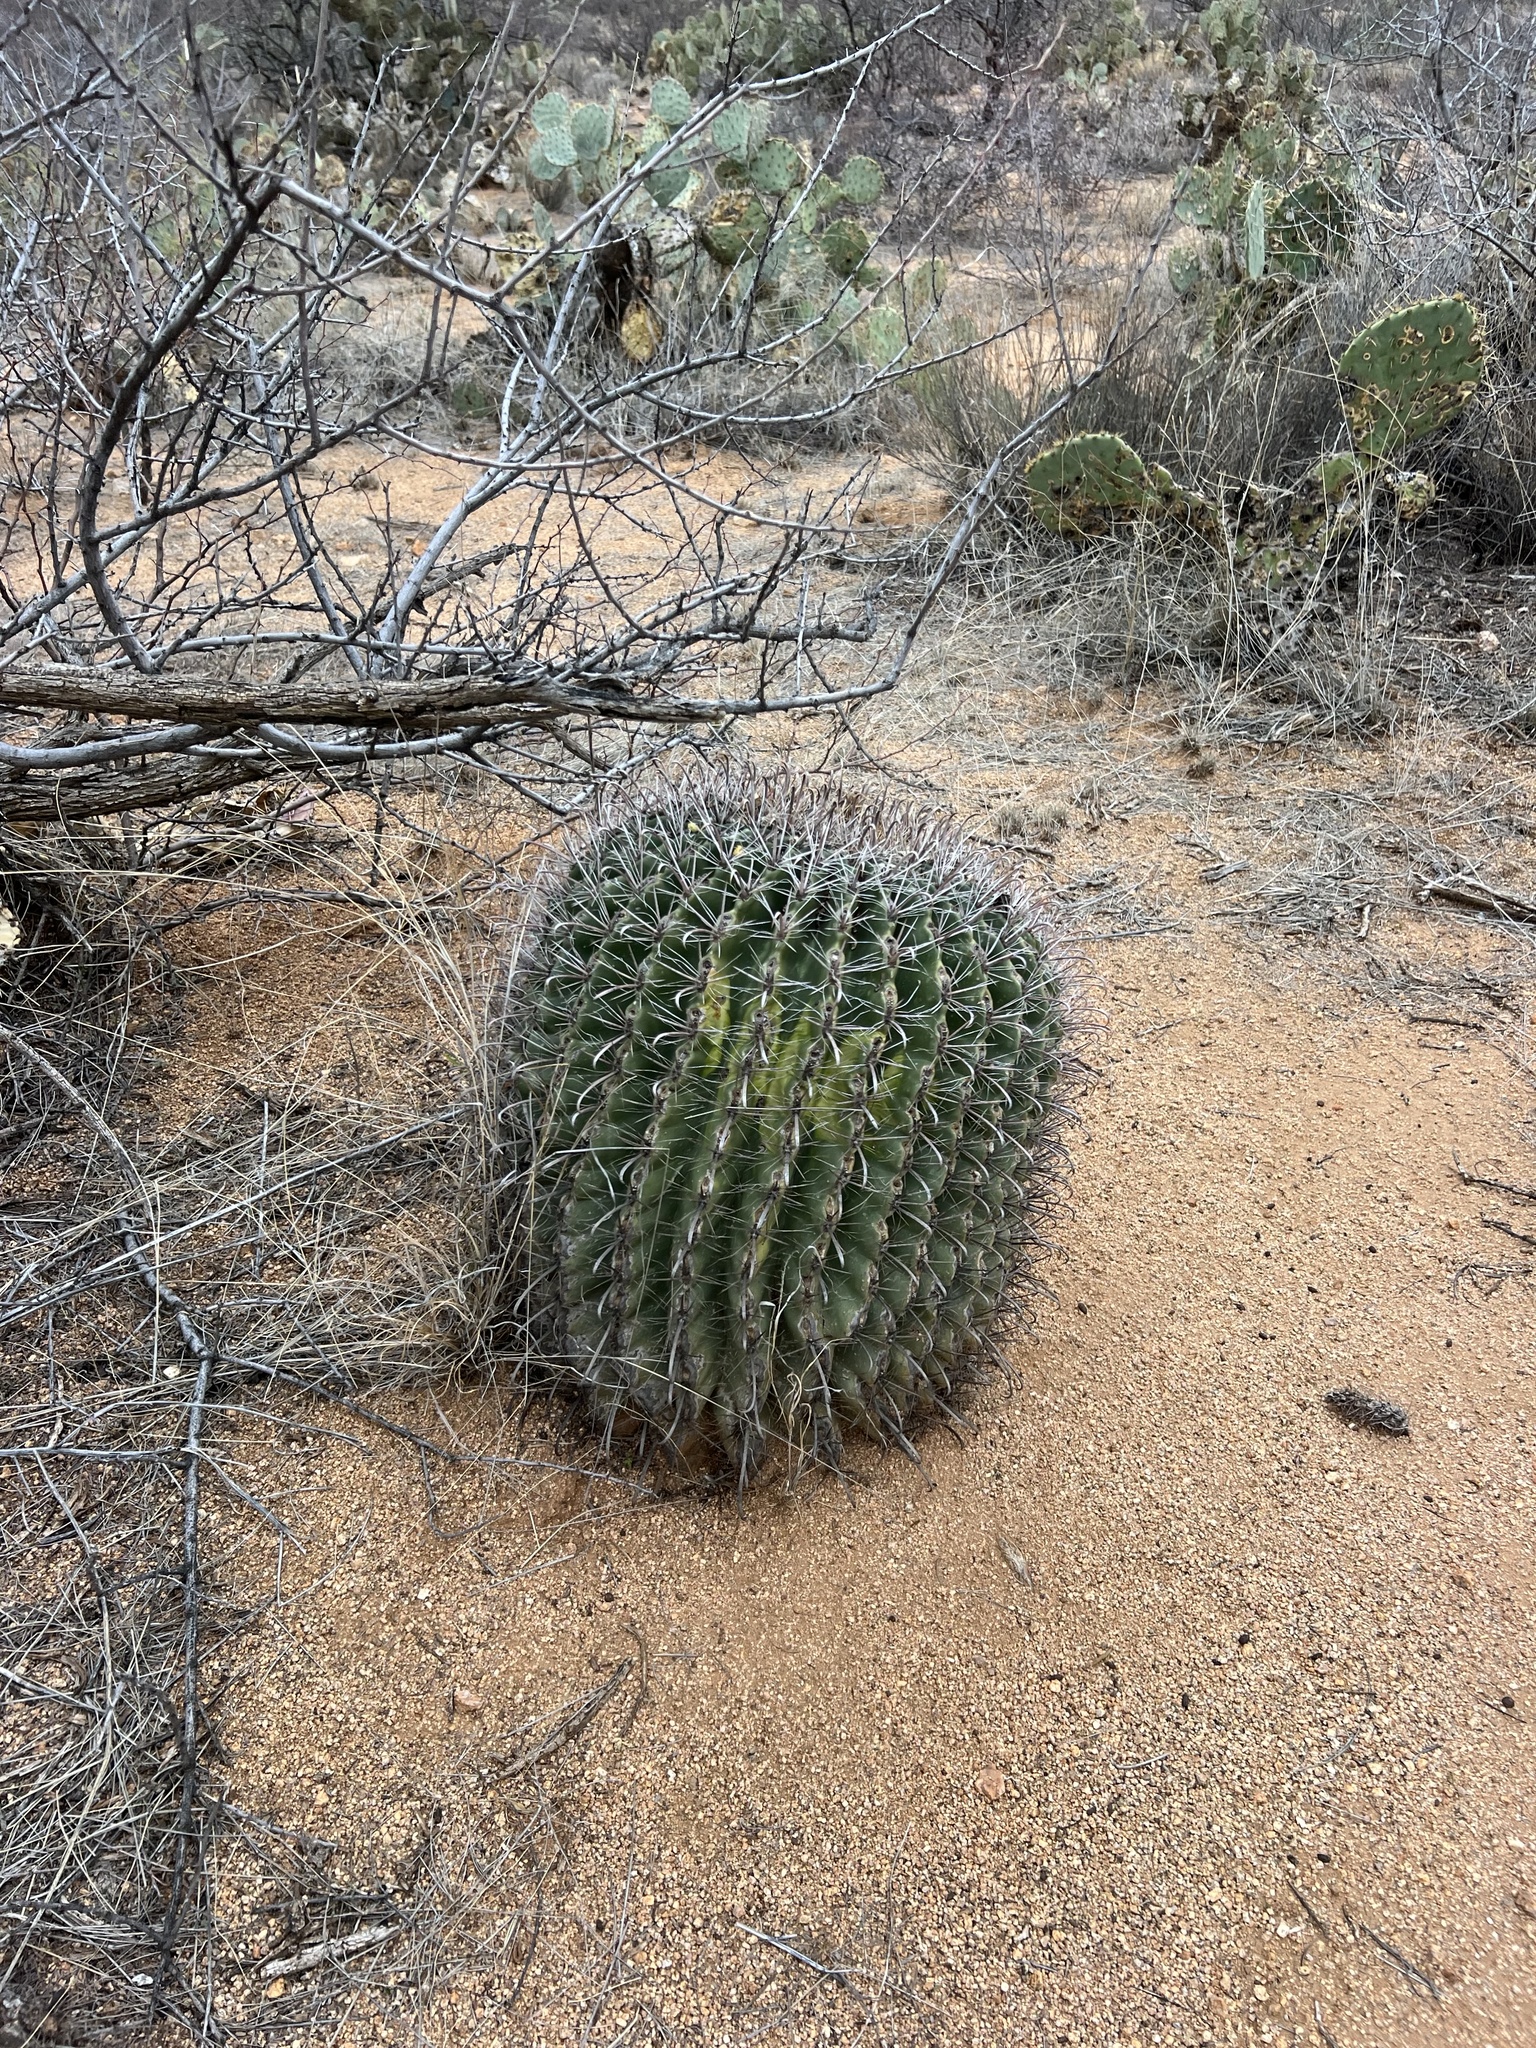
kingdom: Plantae
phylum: Tracheophyta
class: Magnoliopsida
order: Caryophyllales
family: Cactaceae
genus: Ferocactus
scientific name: Ferocactus wislizeni
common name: Candy barrel cactus
